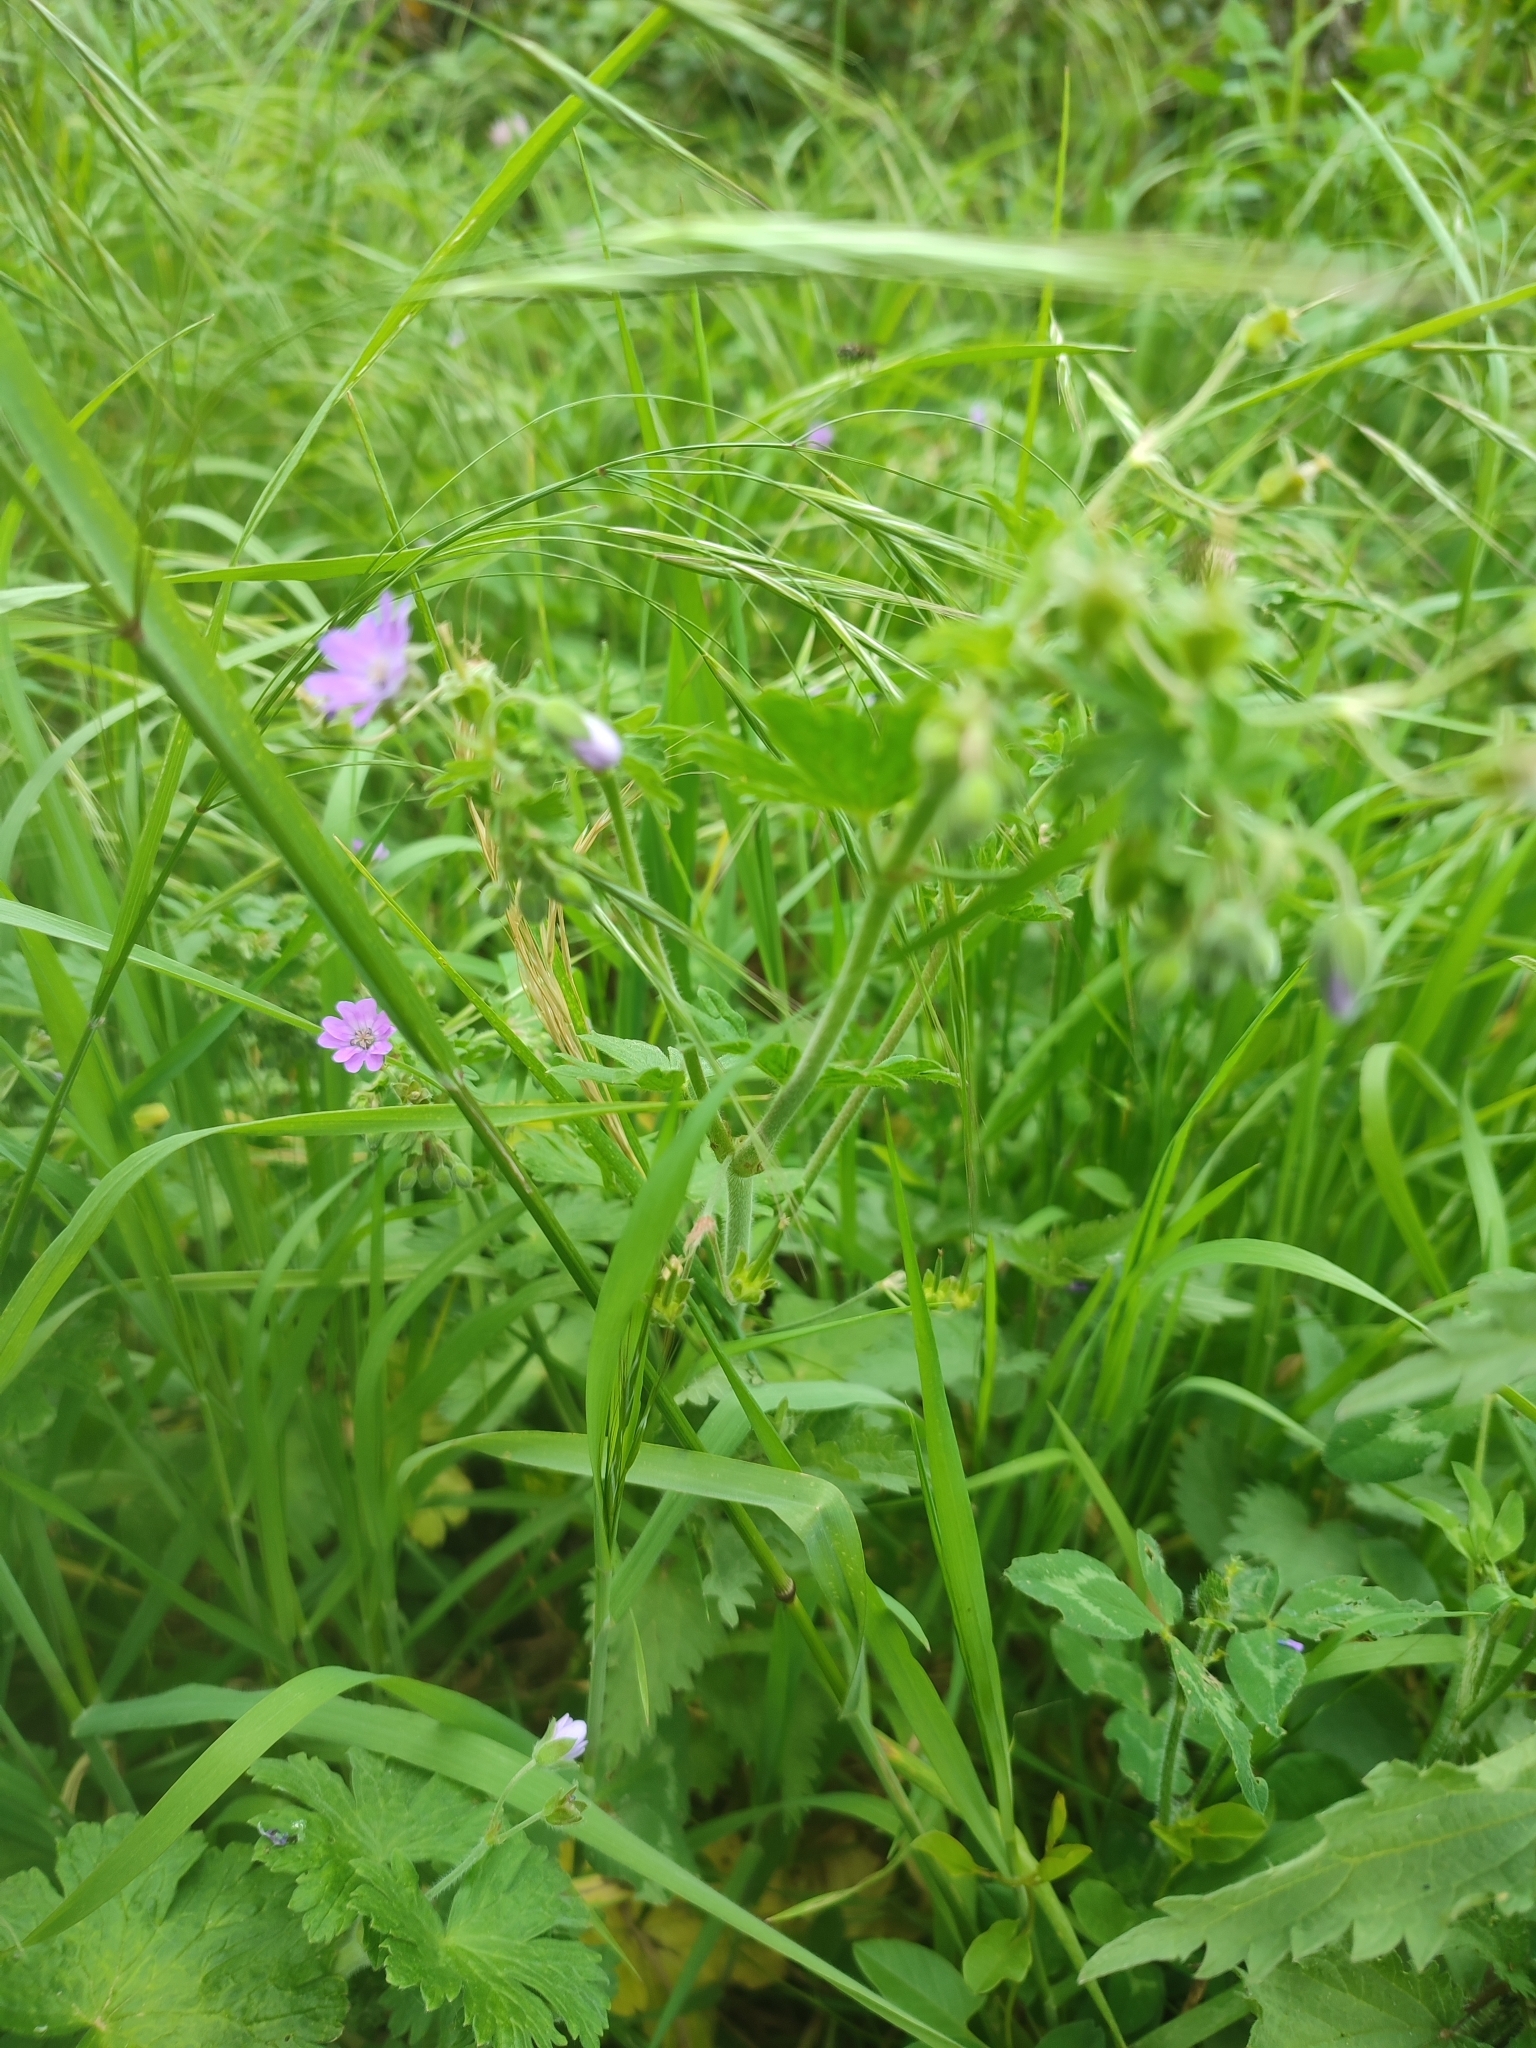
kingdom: Plantae
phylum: Tracheophyta
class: Magnoliopsida
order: Geraniales
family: Geraniaceae
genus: Geranium
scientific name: Geranium pyrenaicum
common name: Hedgerow crane's-bill
